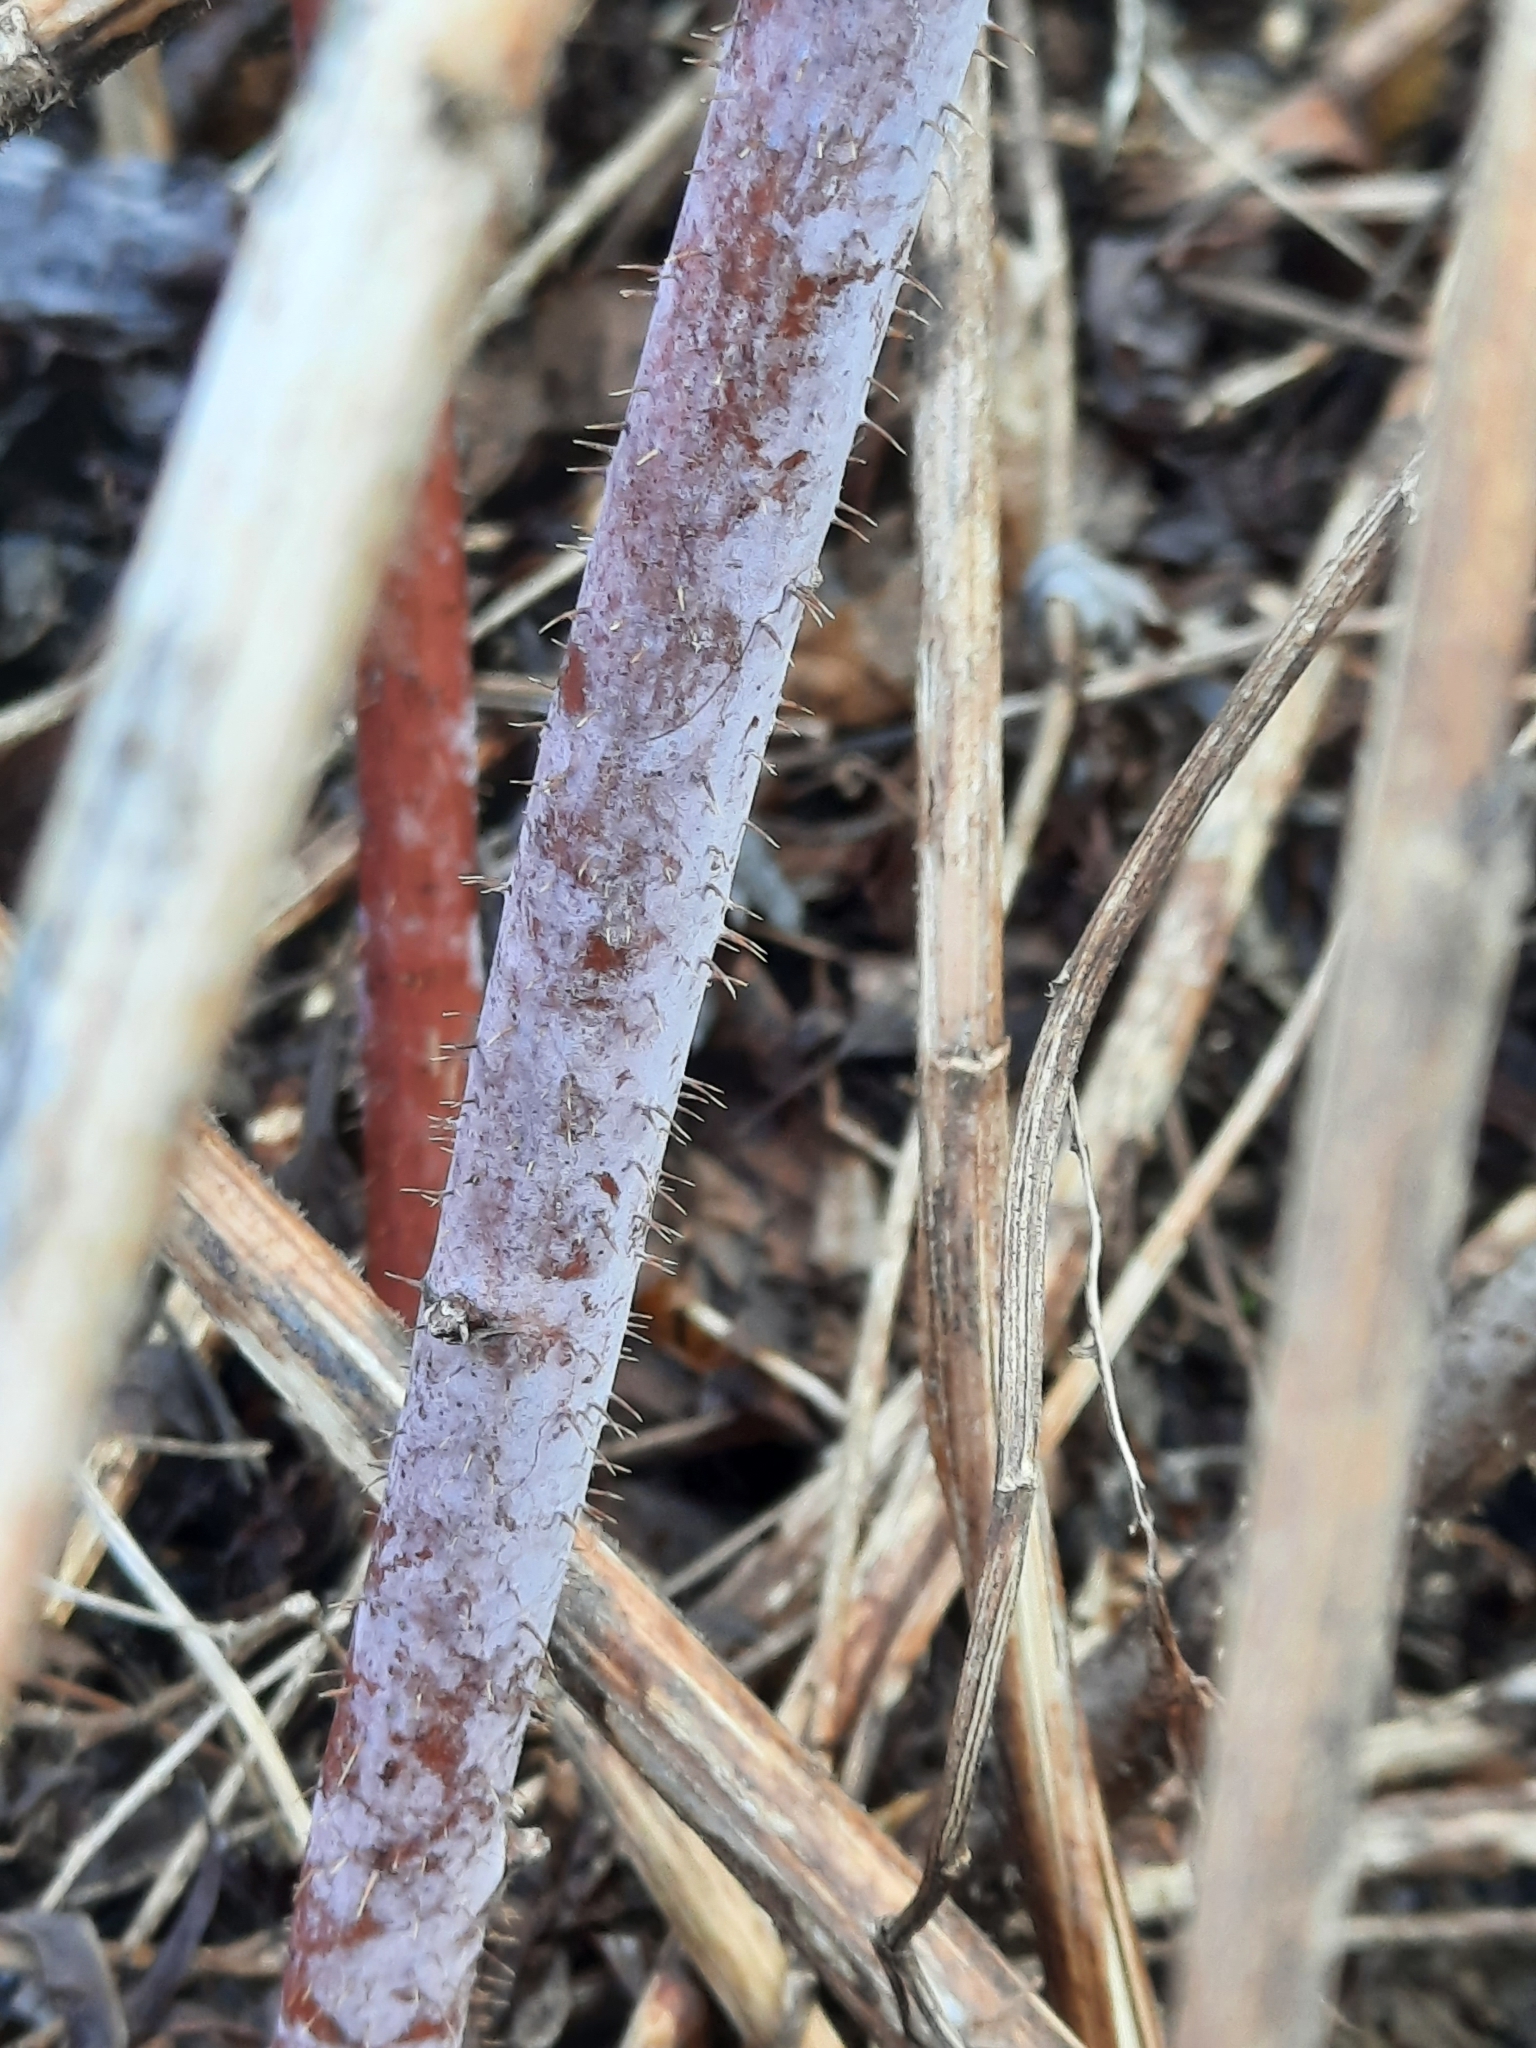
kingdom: Plantae
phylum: Tracheophyta
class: Magnoliopsida
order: Rosales
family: Rosaceae
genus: Rubus
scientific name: Rubus idaeus
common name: Raspberry
